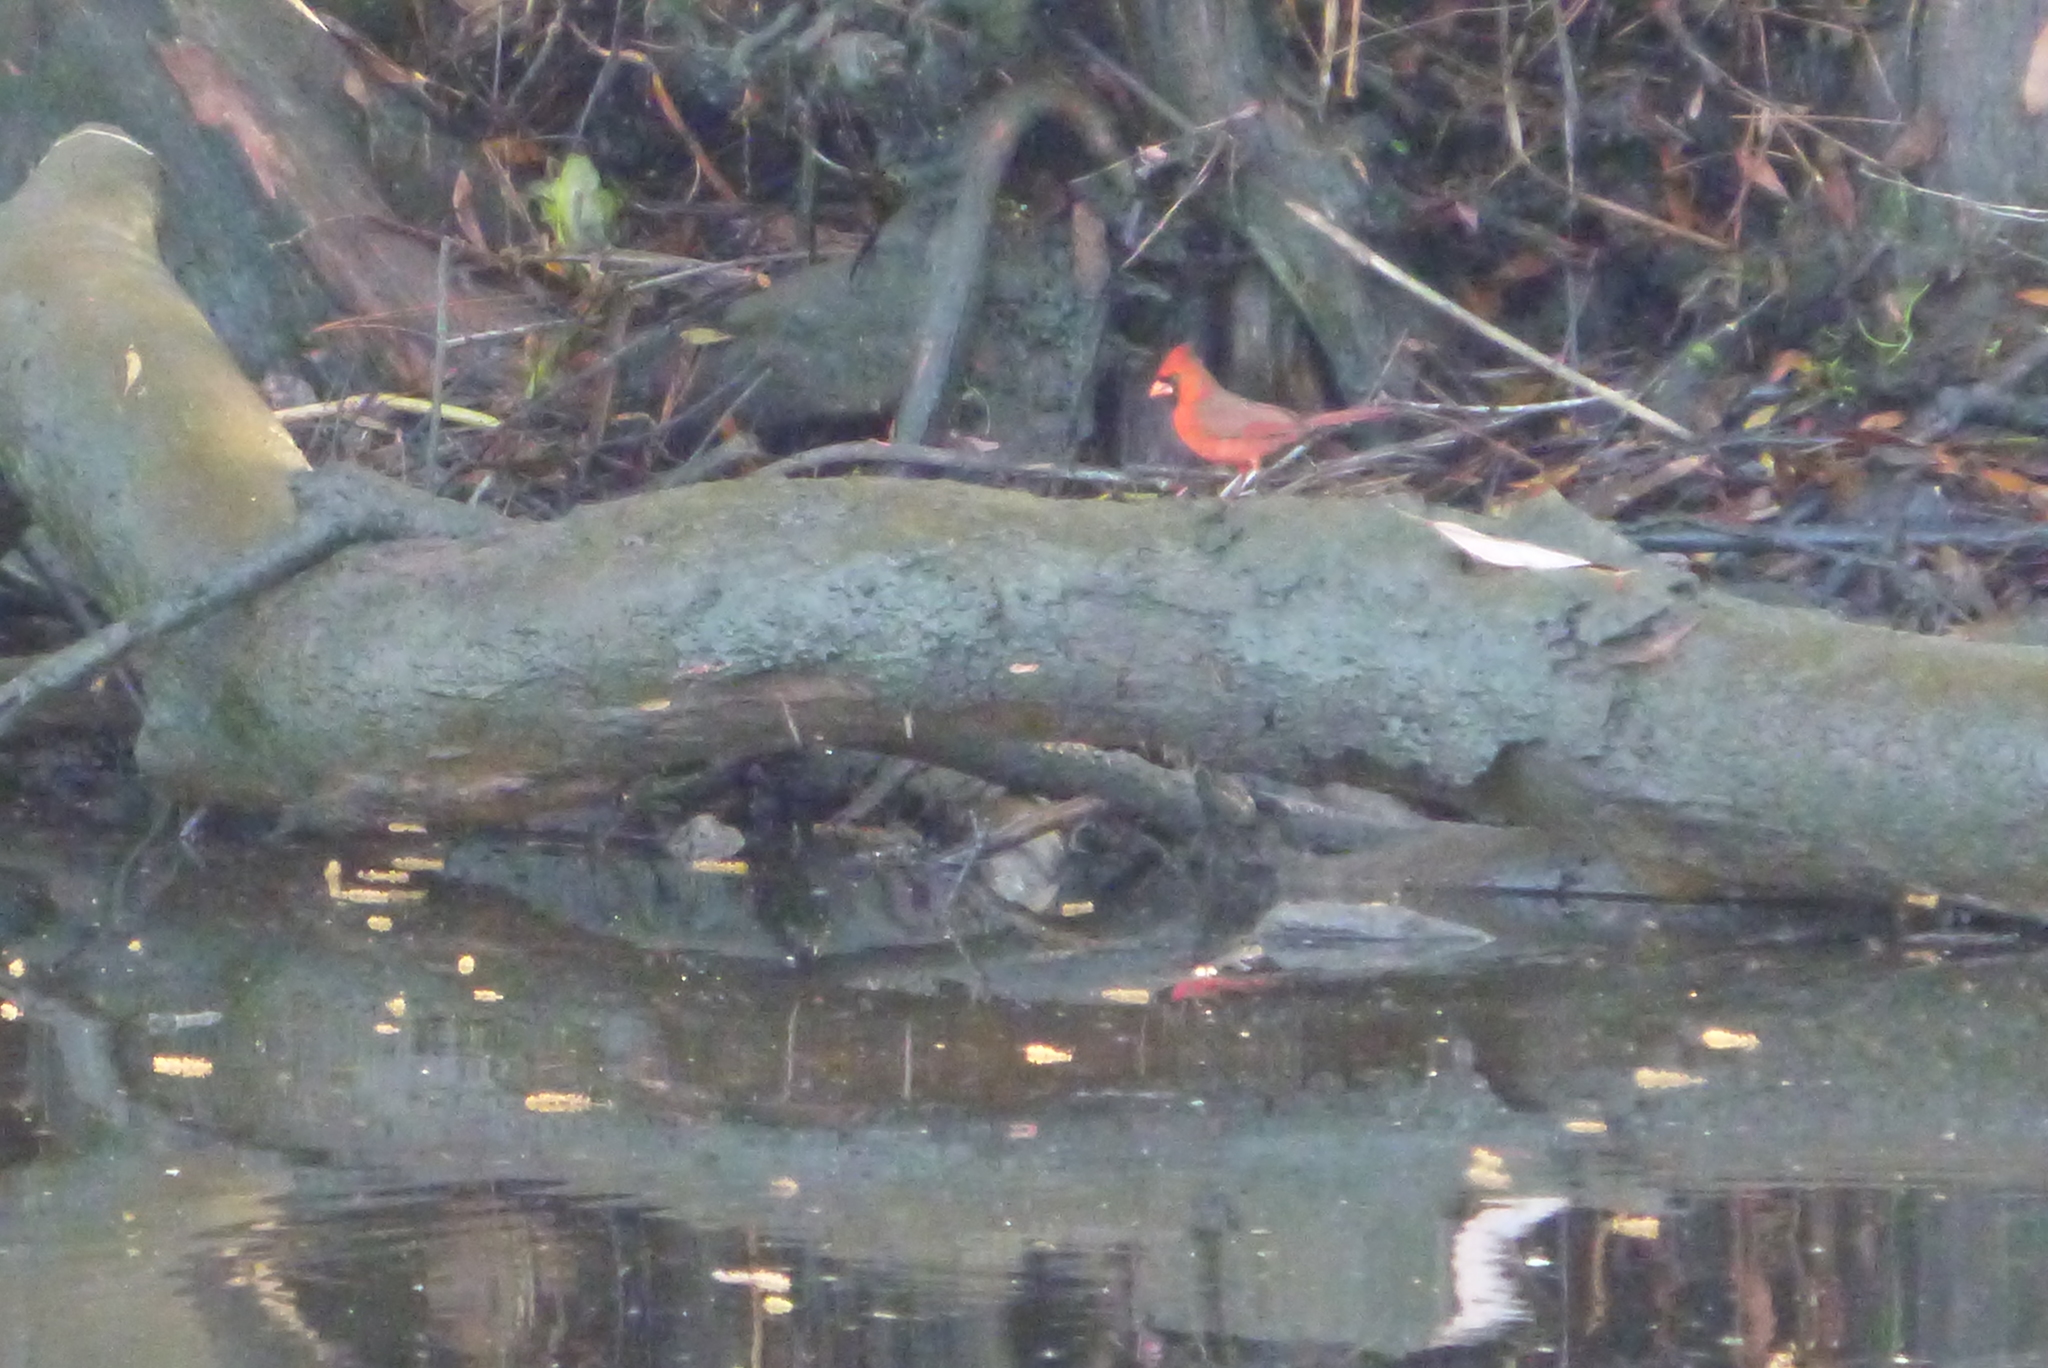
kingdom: Animalia
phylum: Chordata
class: Aves
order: Passeriformes
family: Cardinalidae
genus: Cardinalis
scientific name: Cardinalis cardinalis
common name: Northern cardinal
